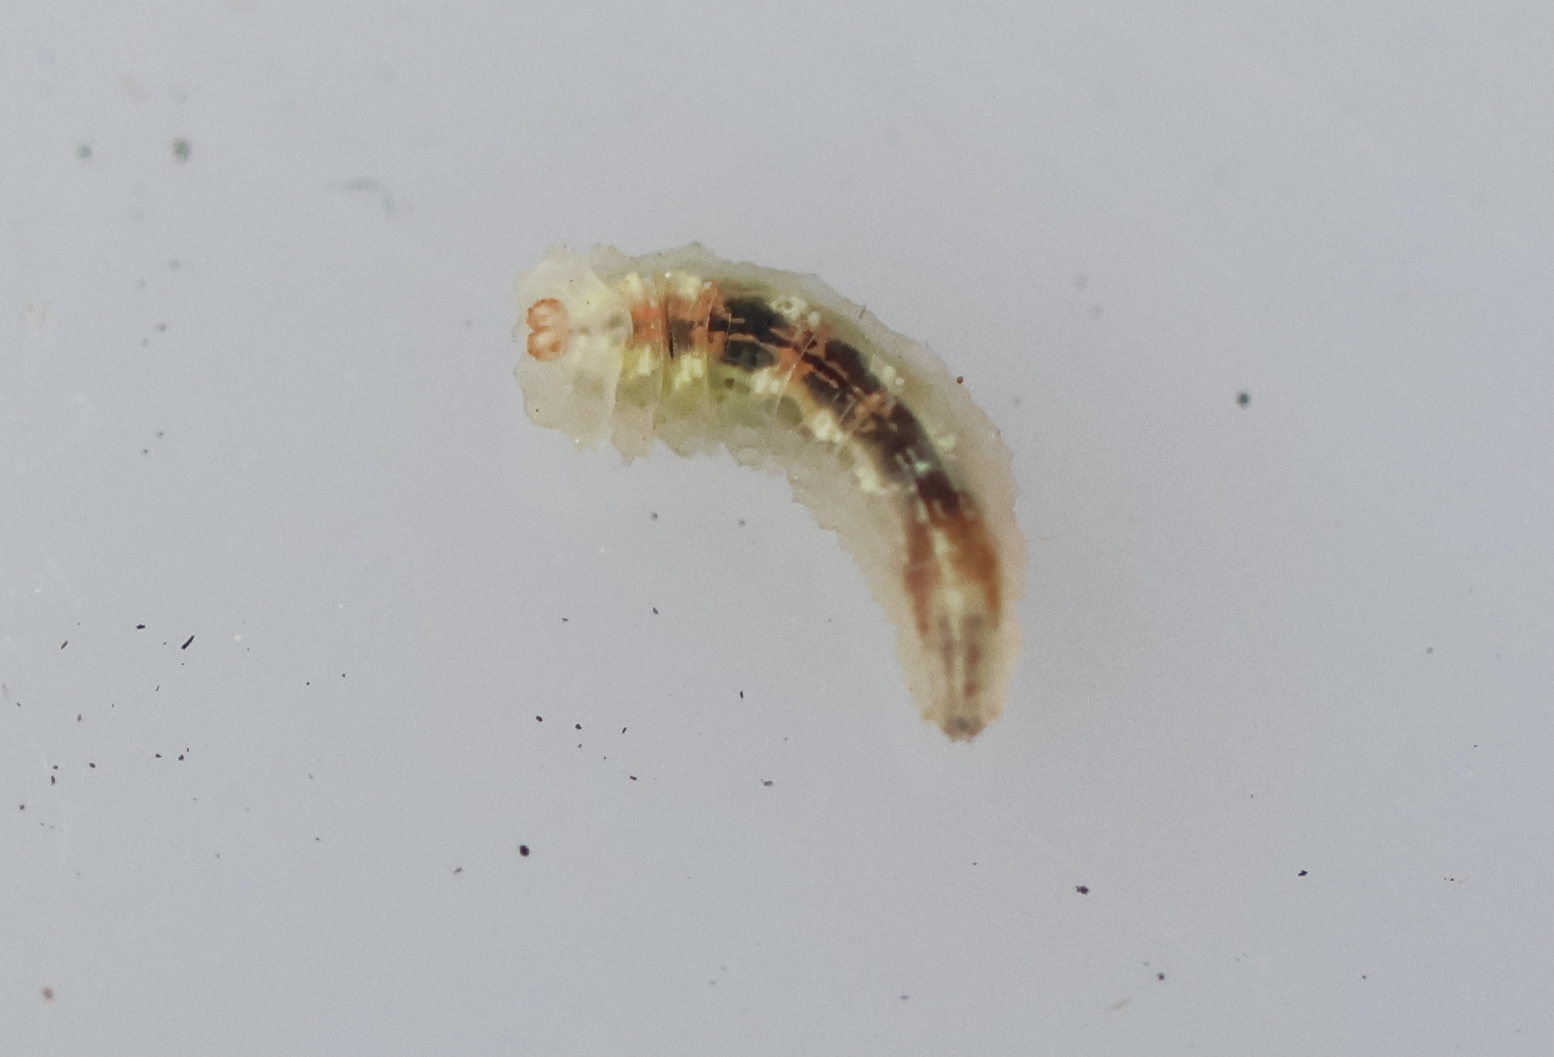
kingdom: Animalia
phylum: Arthropoda
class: Insecta
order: Diptera
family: Syrphidae
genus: Syrphus
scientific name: Syrphus
